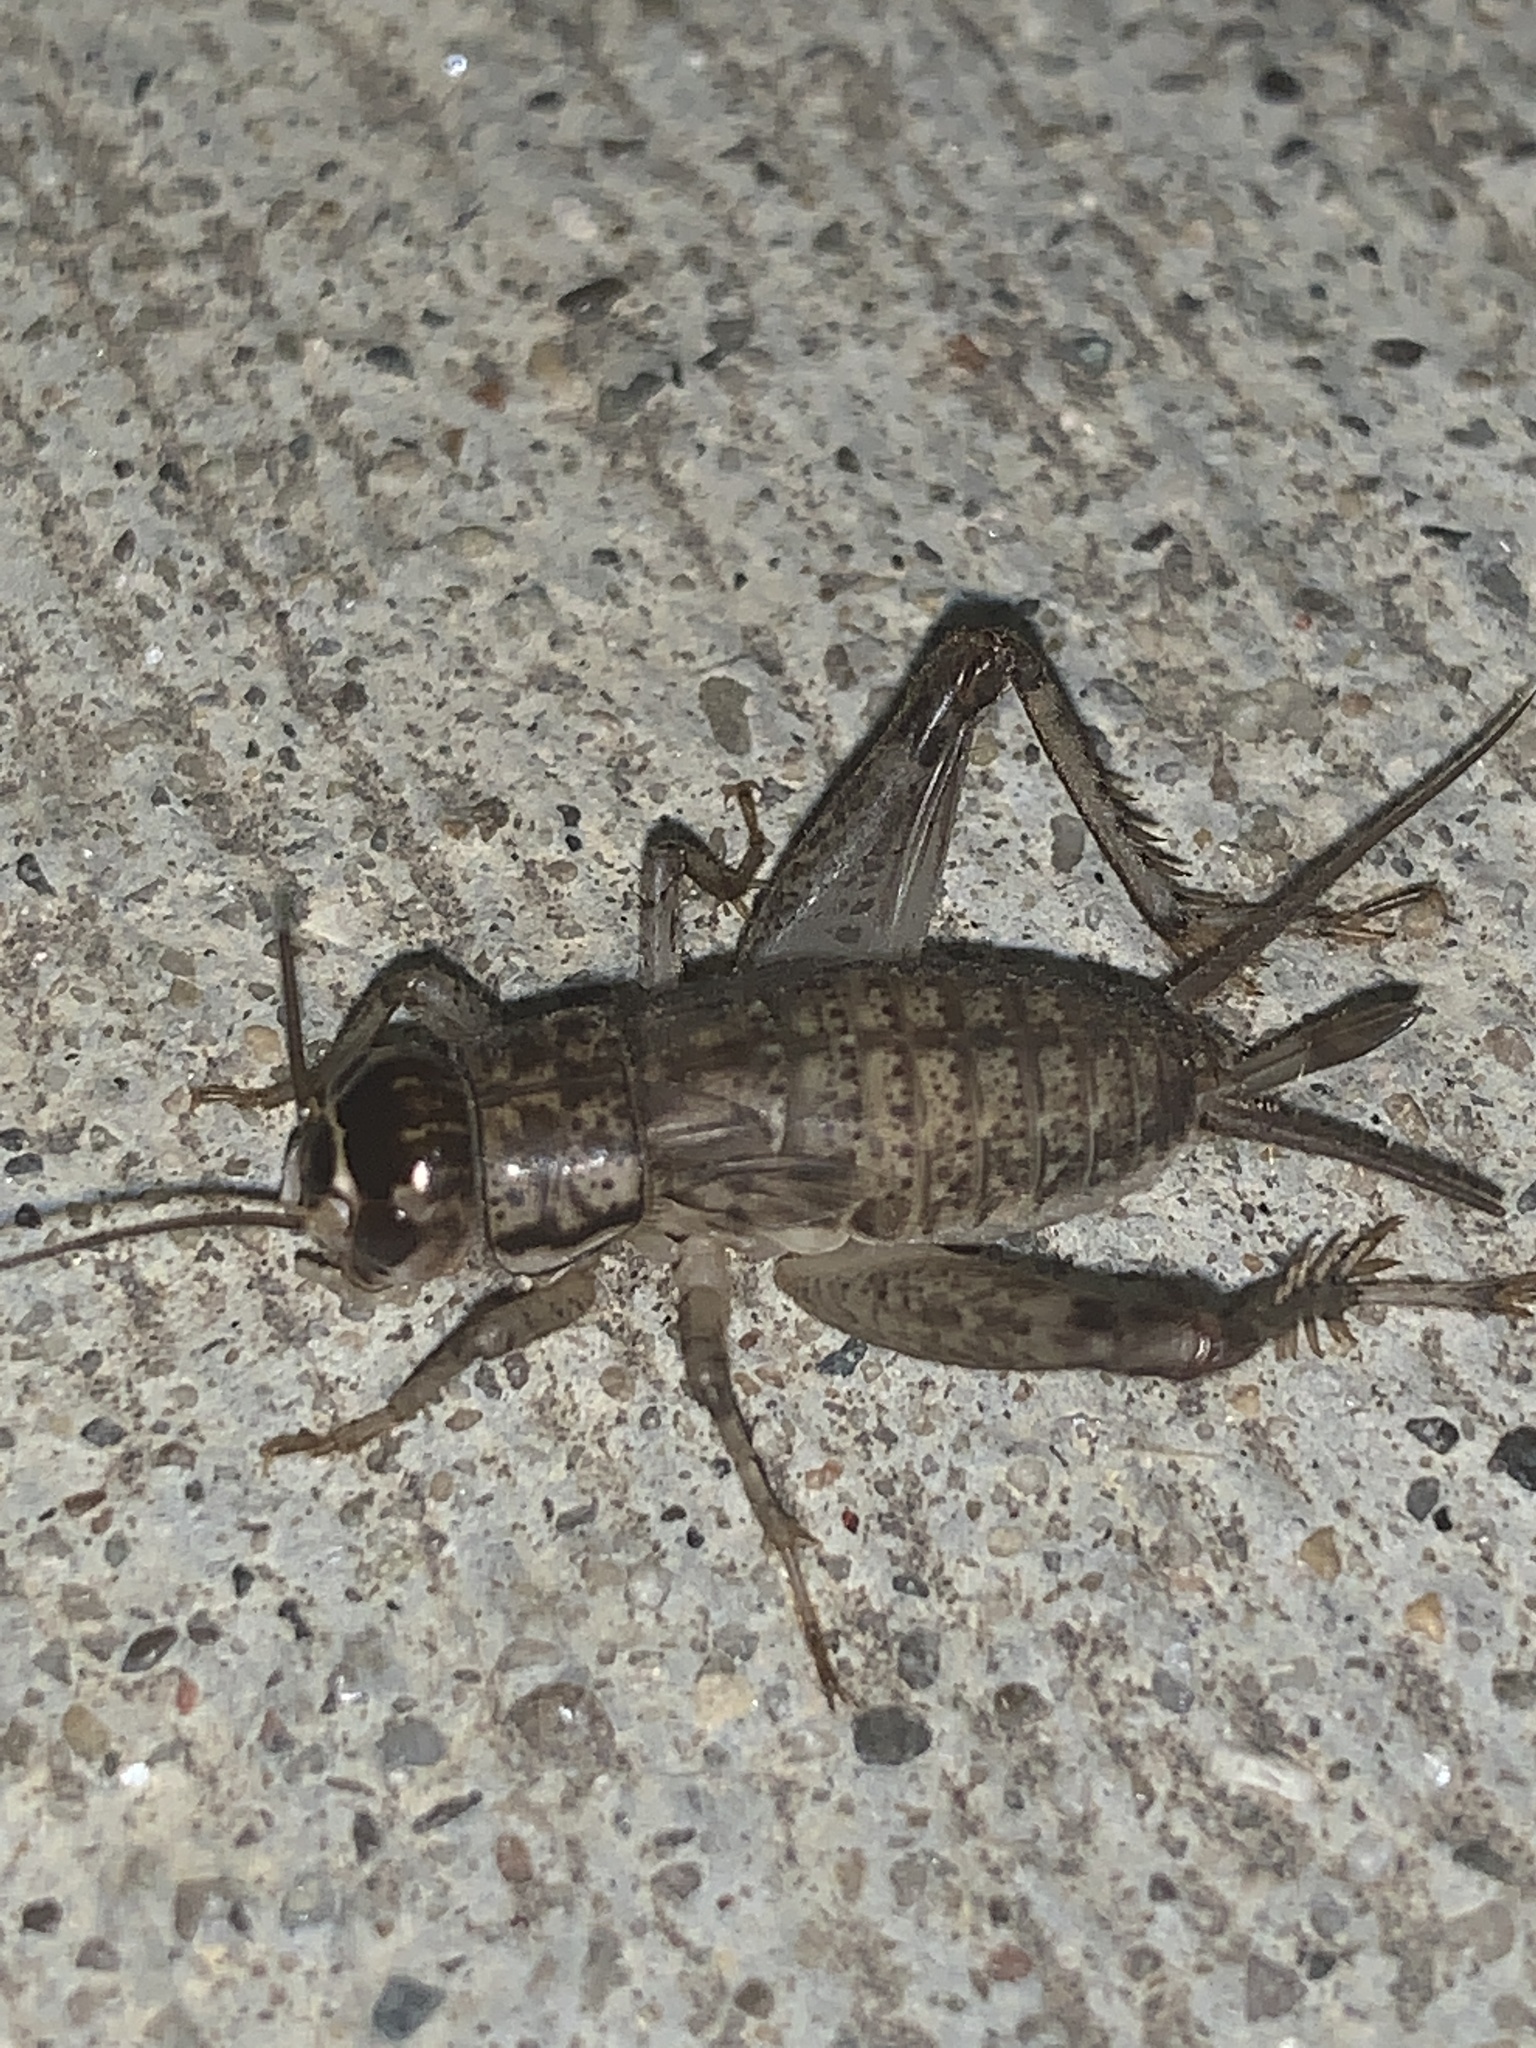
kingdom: Animalia
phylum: Arthropoda
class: Insecta
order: Orthoptera
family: Gryllidae
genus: Velarifictorus
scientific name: Velarifictorus micado
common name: Japanese burrowing cricket
